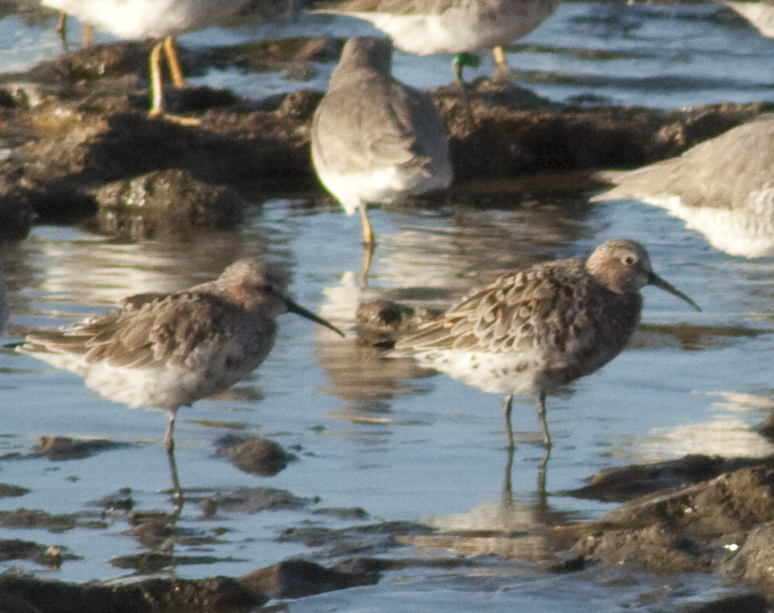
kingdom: Animalia
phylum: Chordata
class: Aves
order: Charadriiformes
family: Scolopacidae
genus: Calidris
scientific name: Calidris ferruginea
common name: Curlew sandpiper
